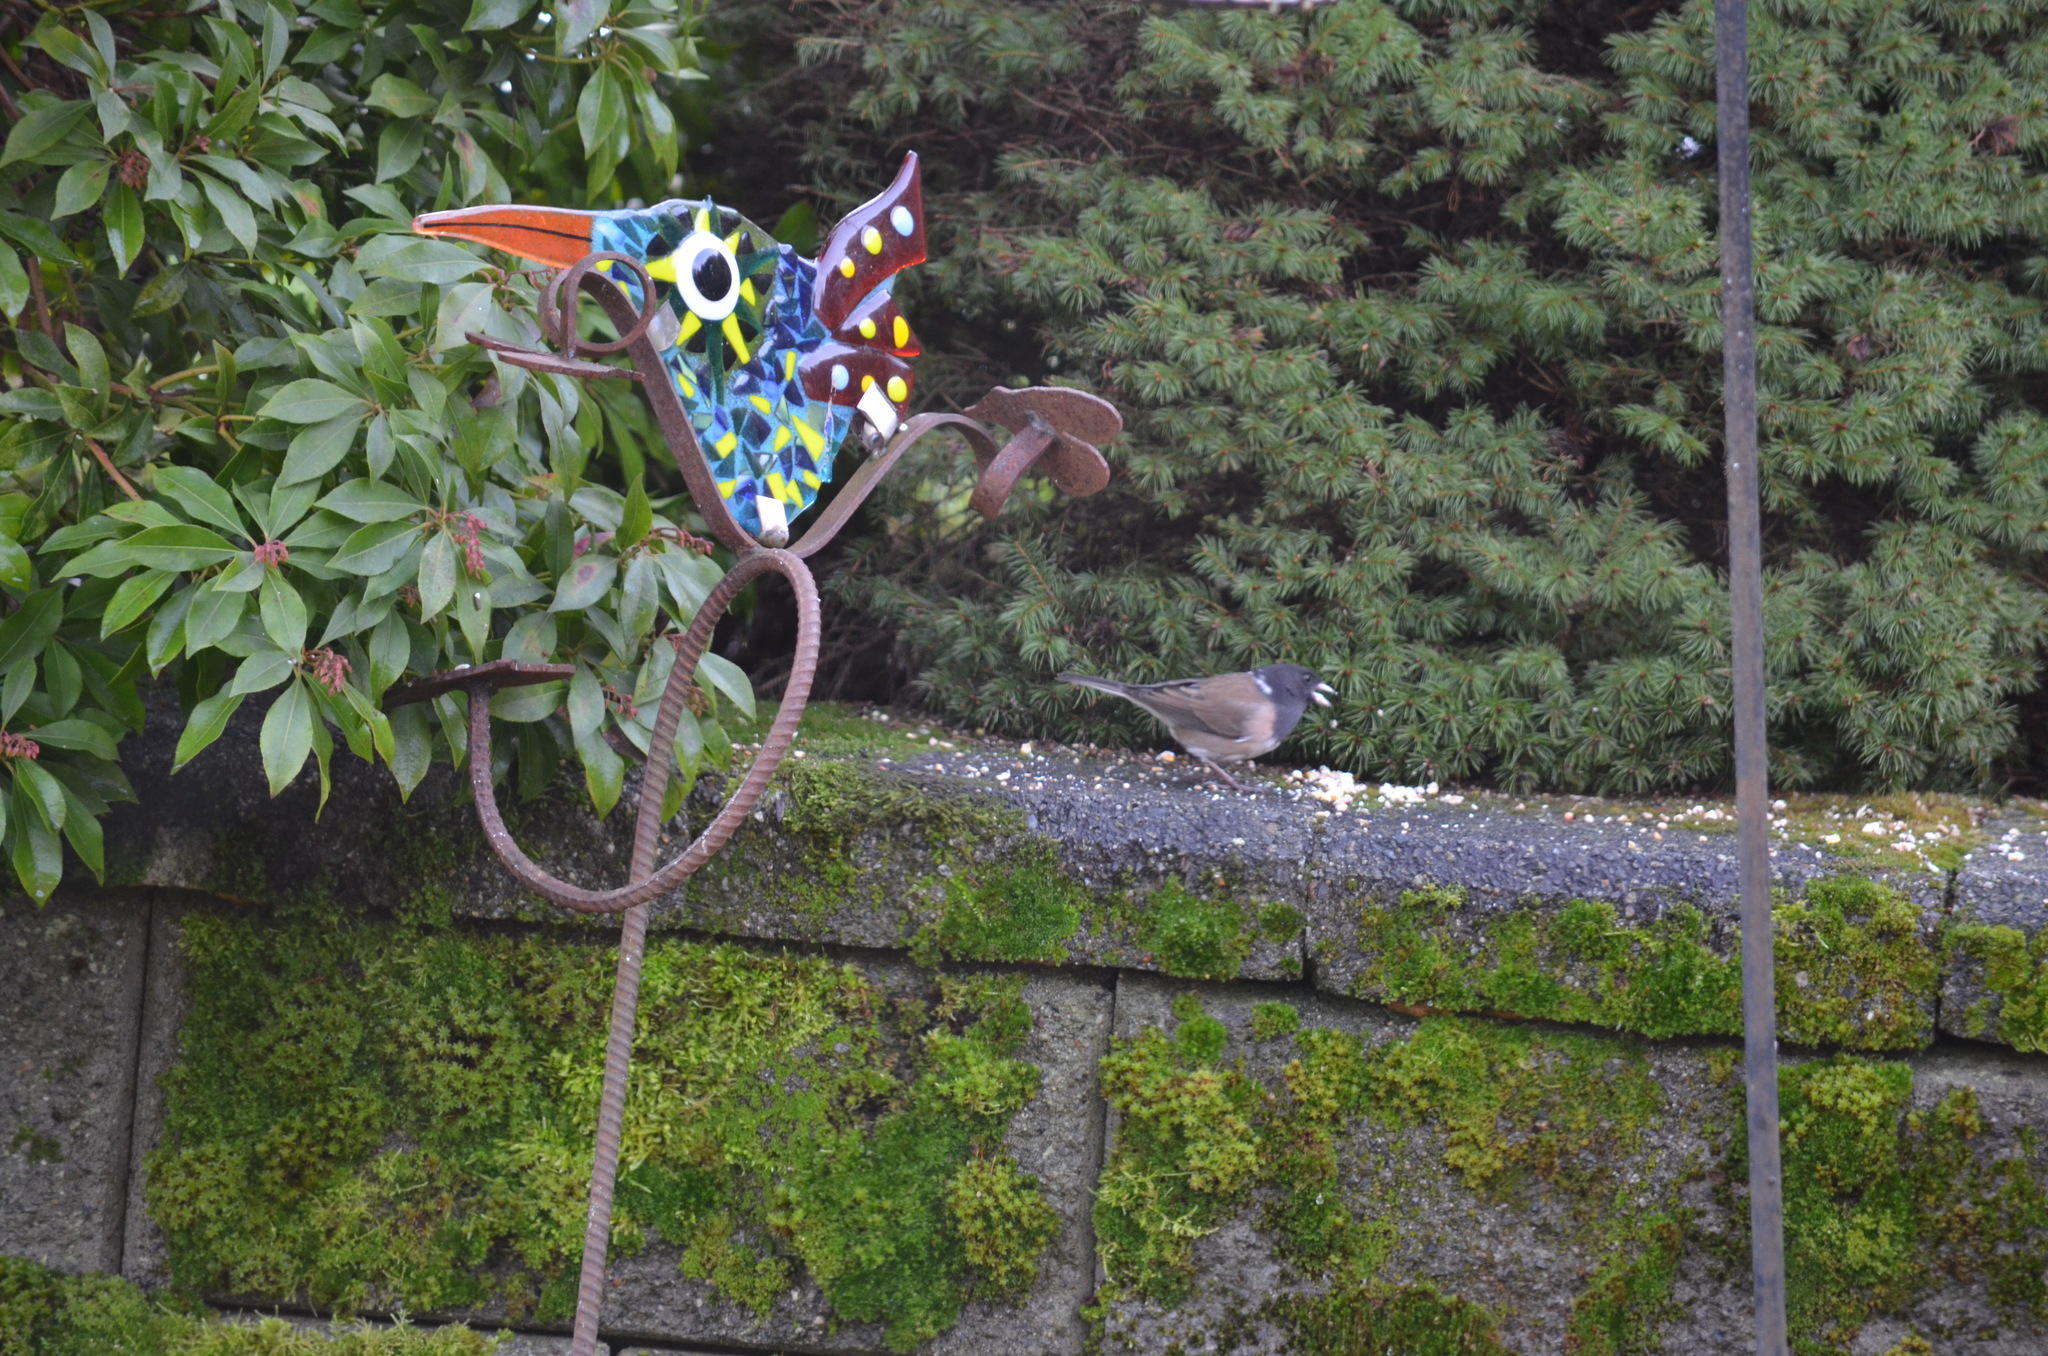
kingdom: Animalia
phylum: Chordata
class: Aves
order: Passeriformes
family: Passerellidae
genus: Junco
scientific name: Junco hyemalis
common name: Dark-eyed junco
